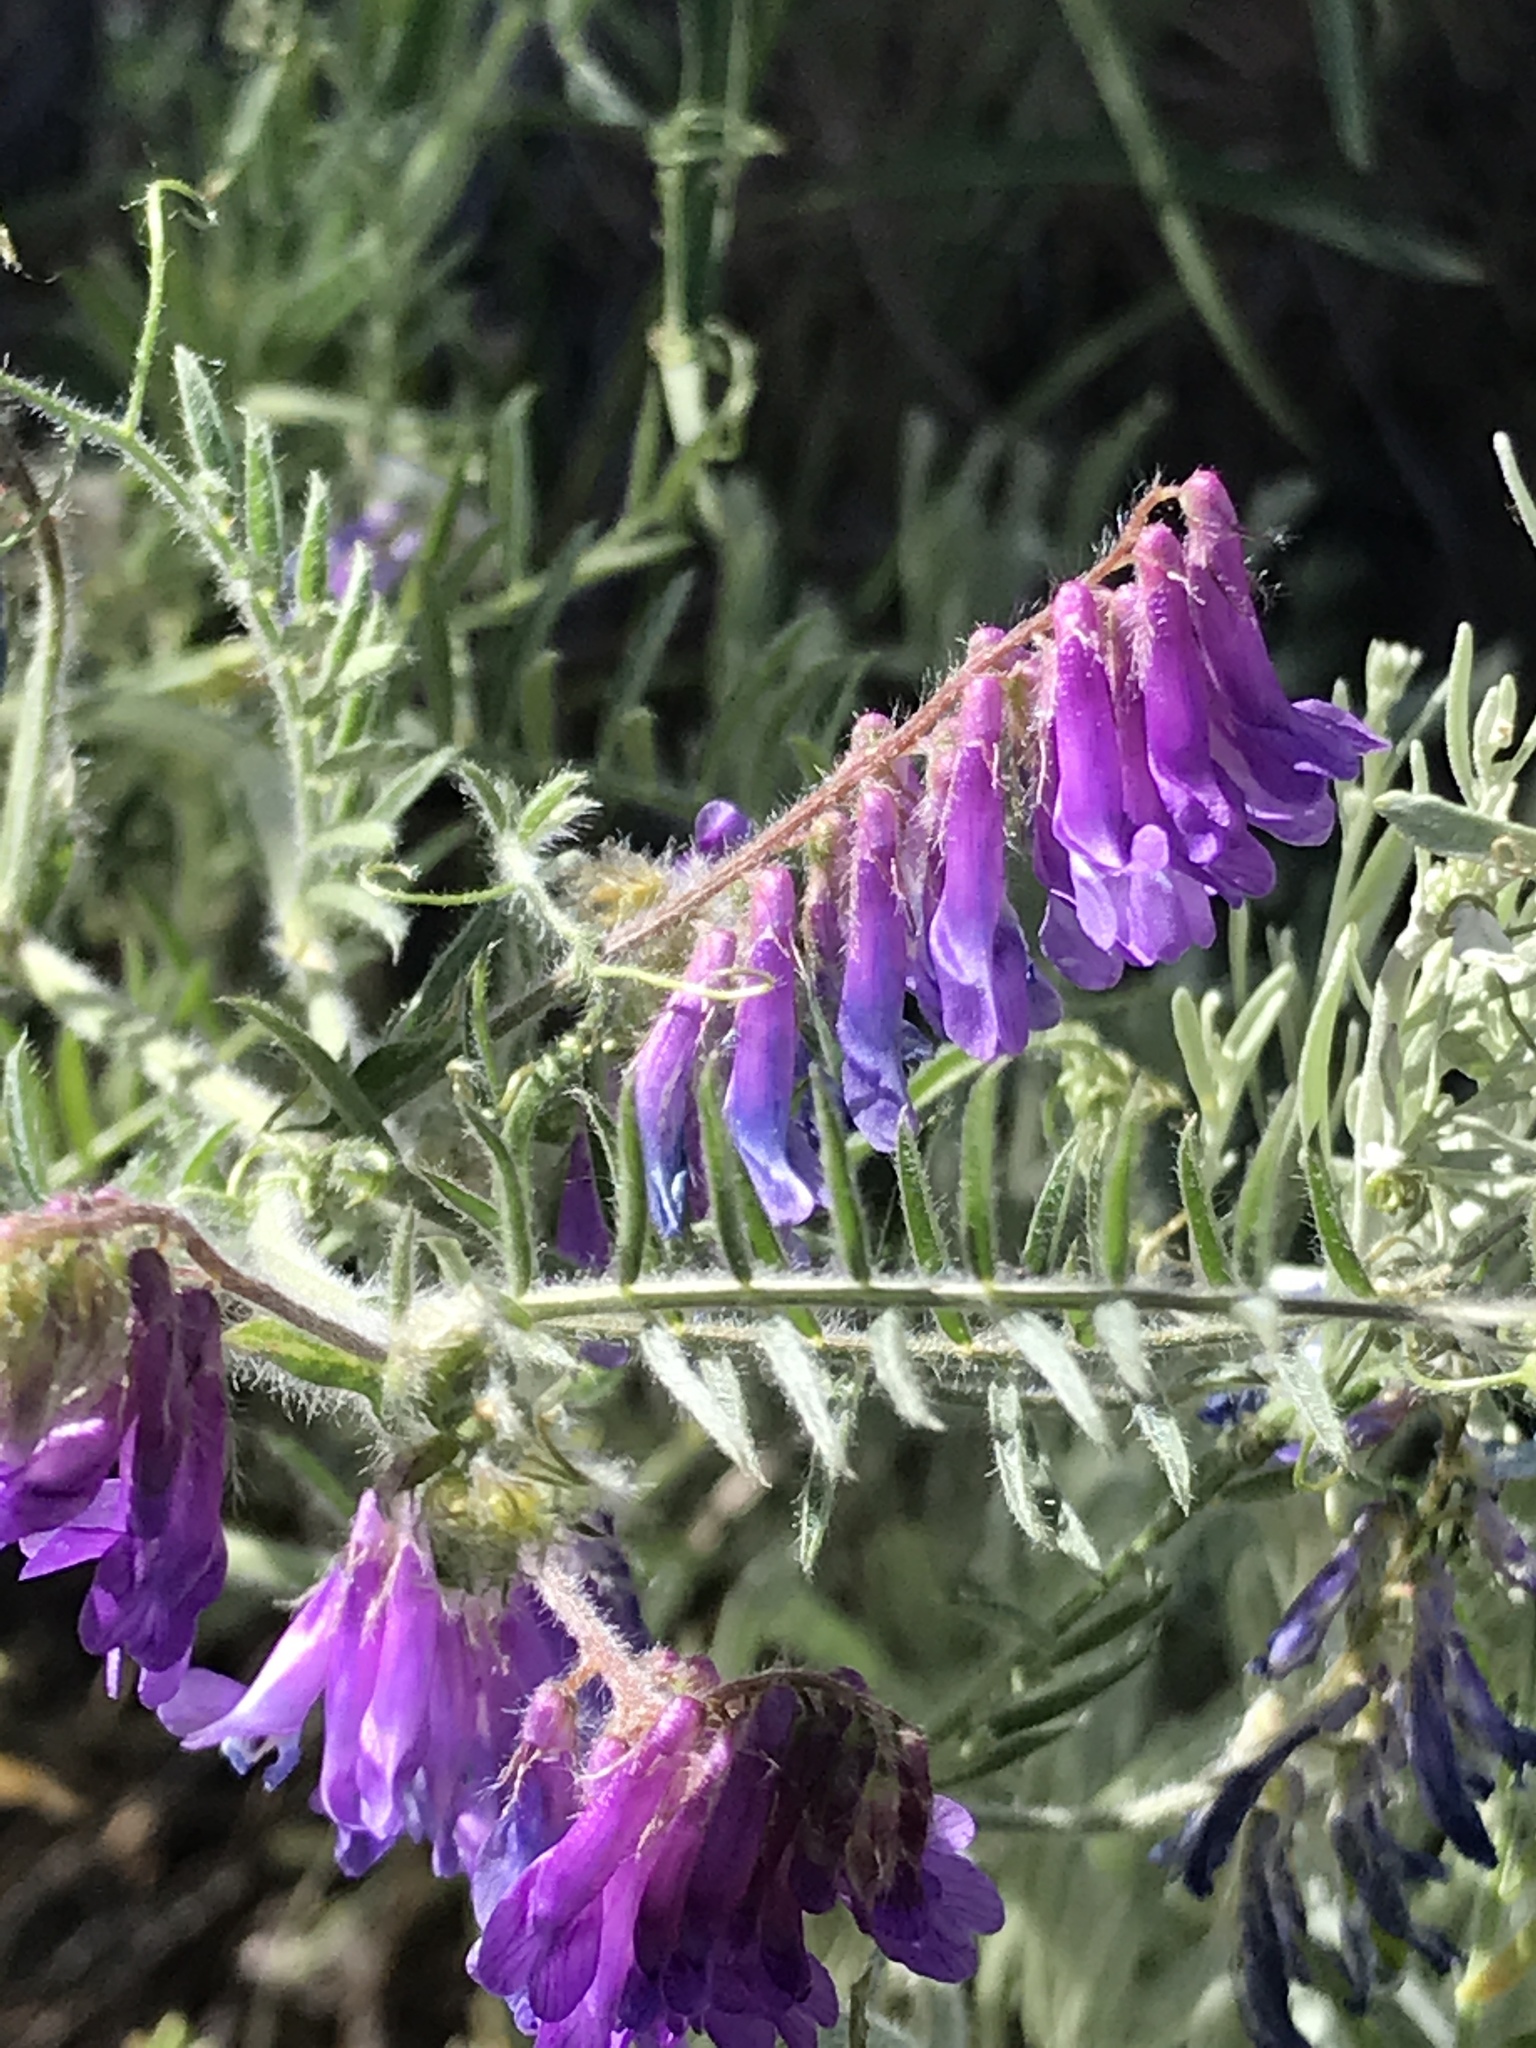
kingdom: Plantae
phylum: Tracheophyta
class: Magnoliopsida
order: Fabales
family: Fabaceae
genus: Vicia
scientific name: Vicia villosa
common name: Fodder vetch
